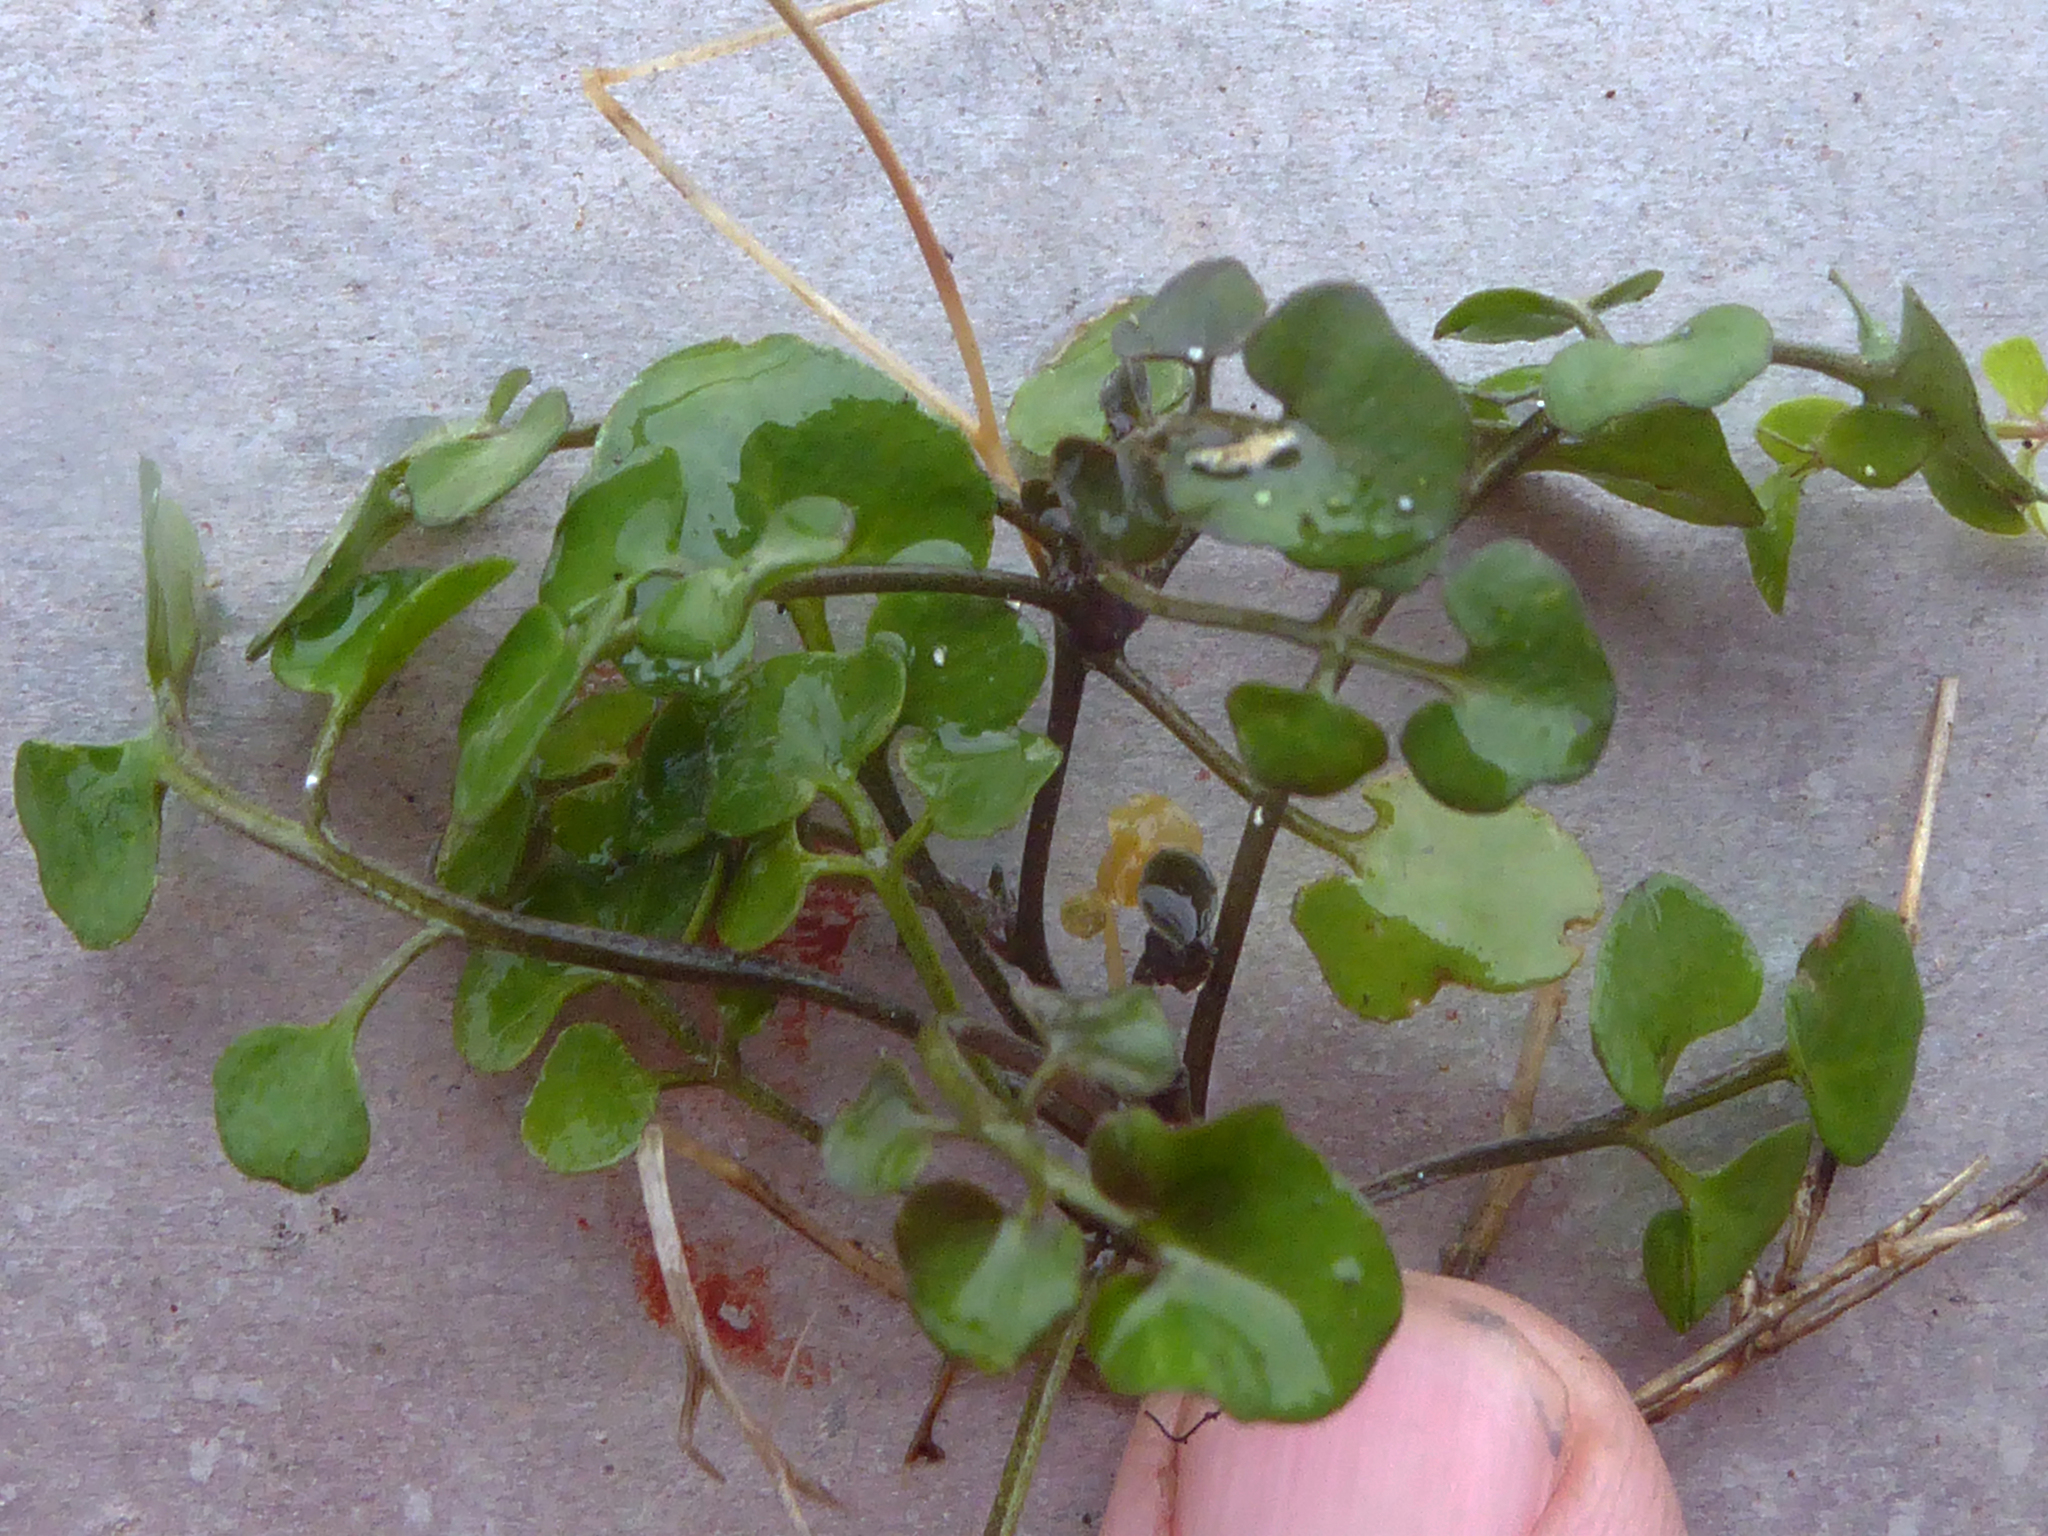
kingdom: Plantae
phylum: Tracheophyta
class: Magnoliopsida
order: Brassicales
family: Brassicaceae
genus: Cardamine
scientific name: Cardamine corymbosa
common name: New zealand bitter-cress
